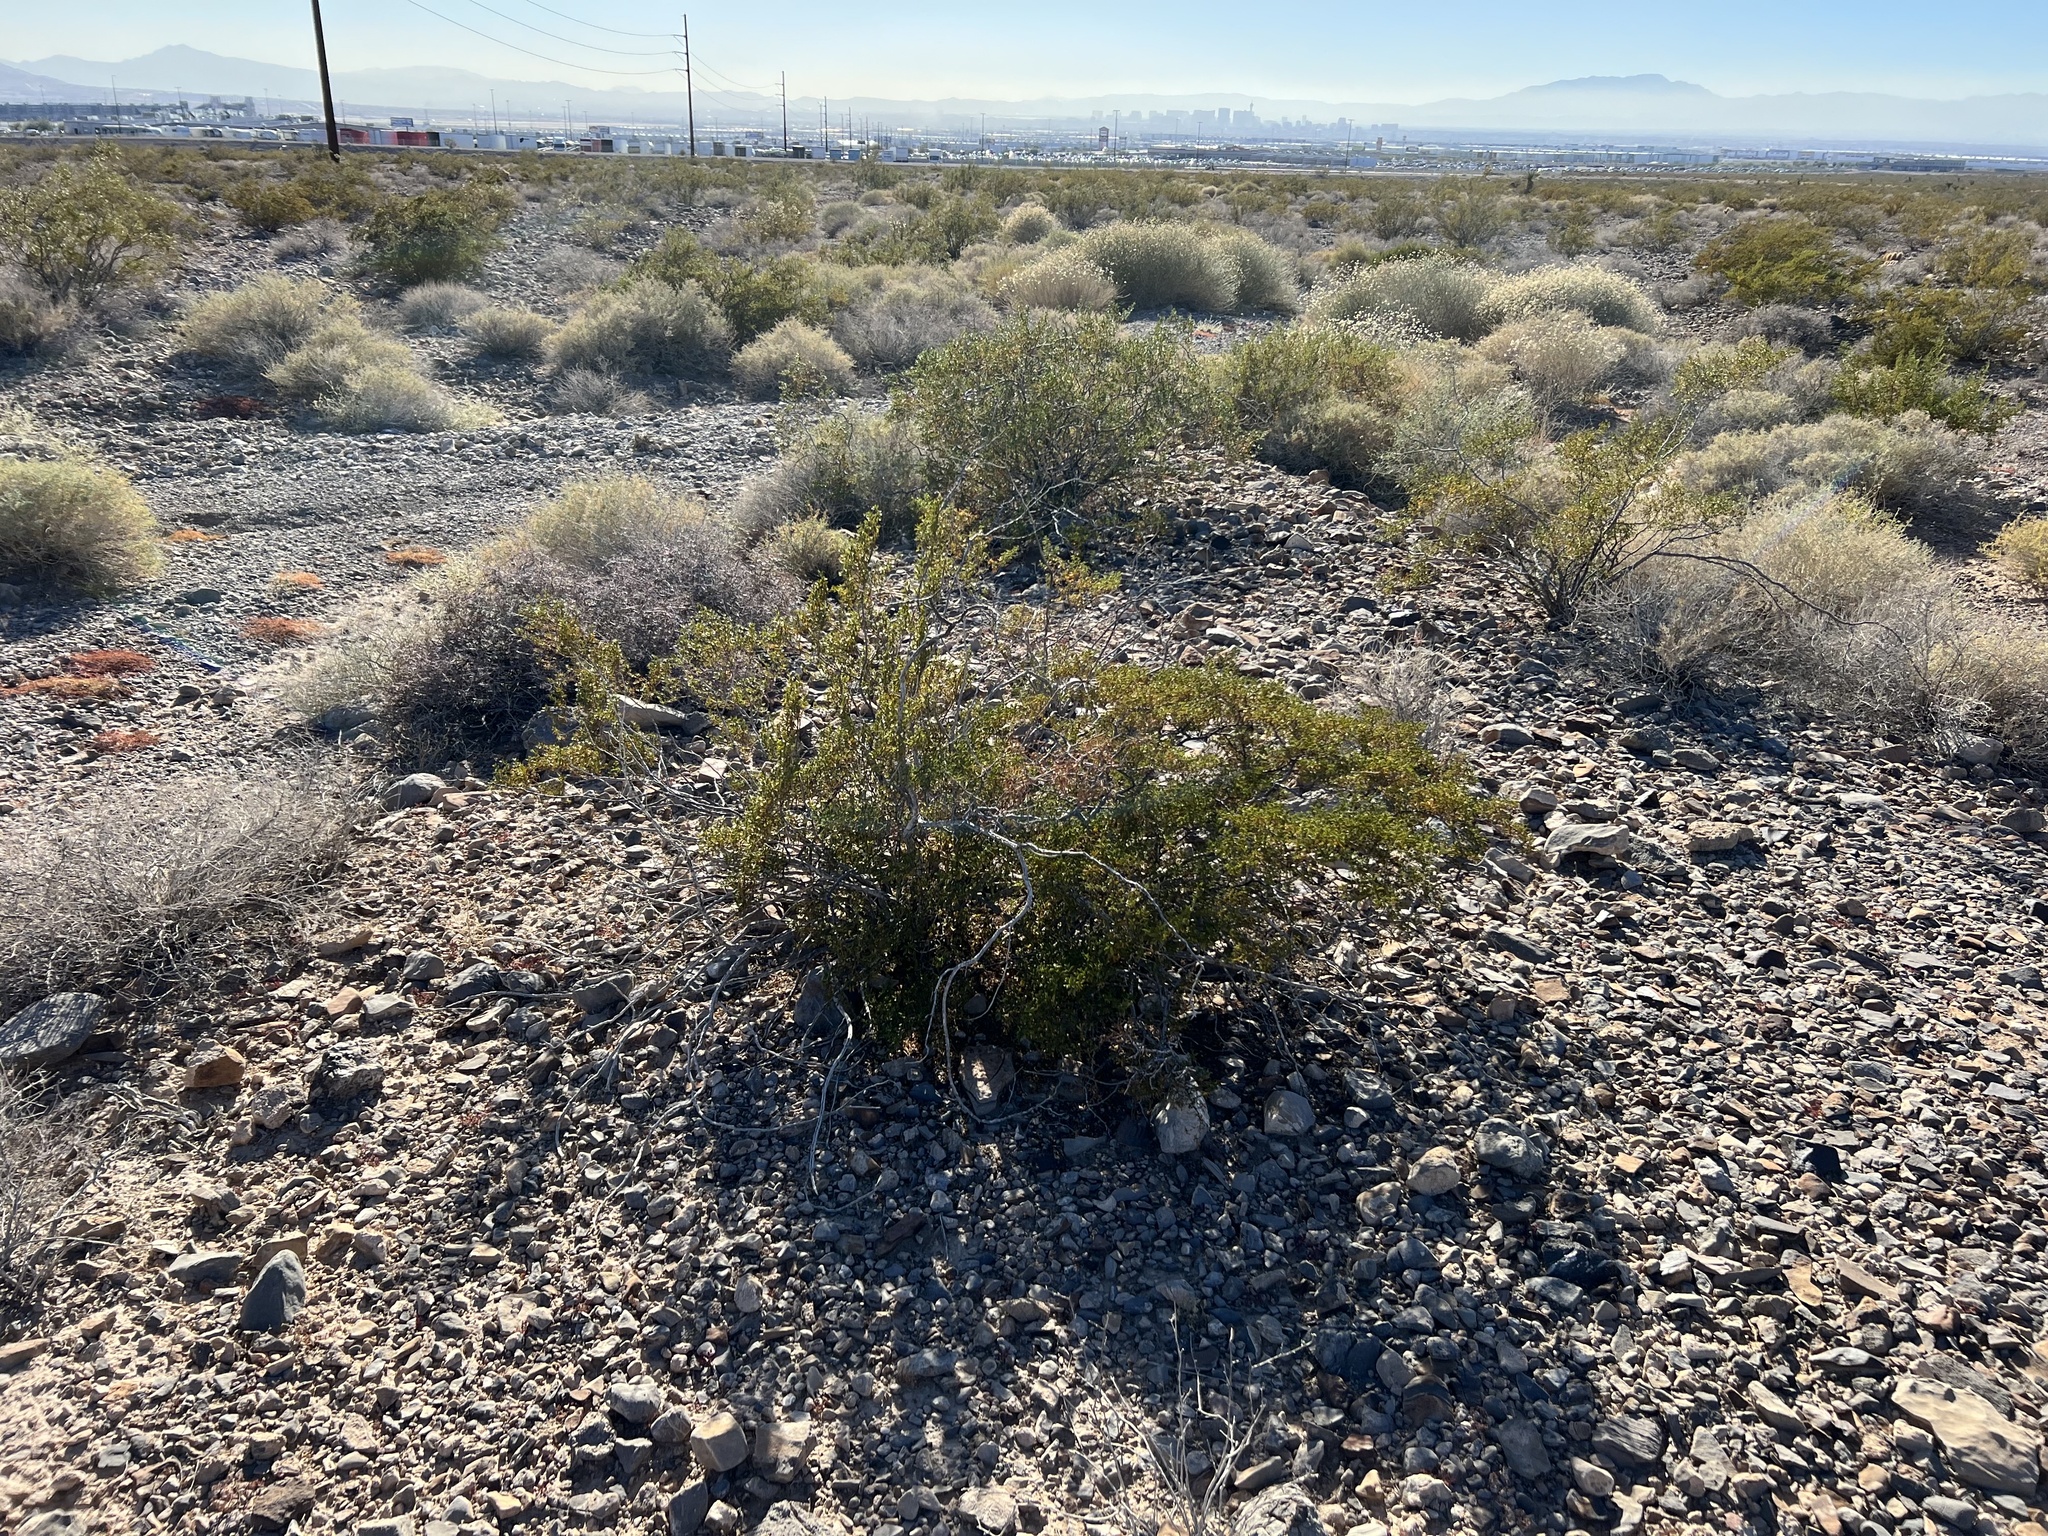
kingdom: Plantae
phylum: Tracheophyta
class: Magnoliopsida
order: Zygophyllales
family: Zygophyllaceae
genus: Larrea
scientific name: Larrea tridentata
